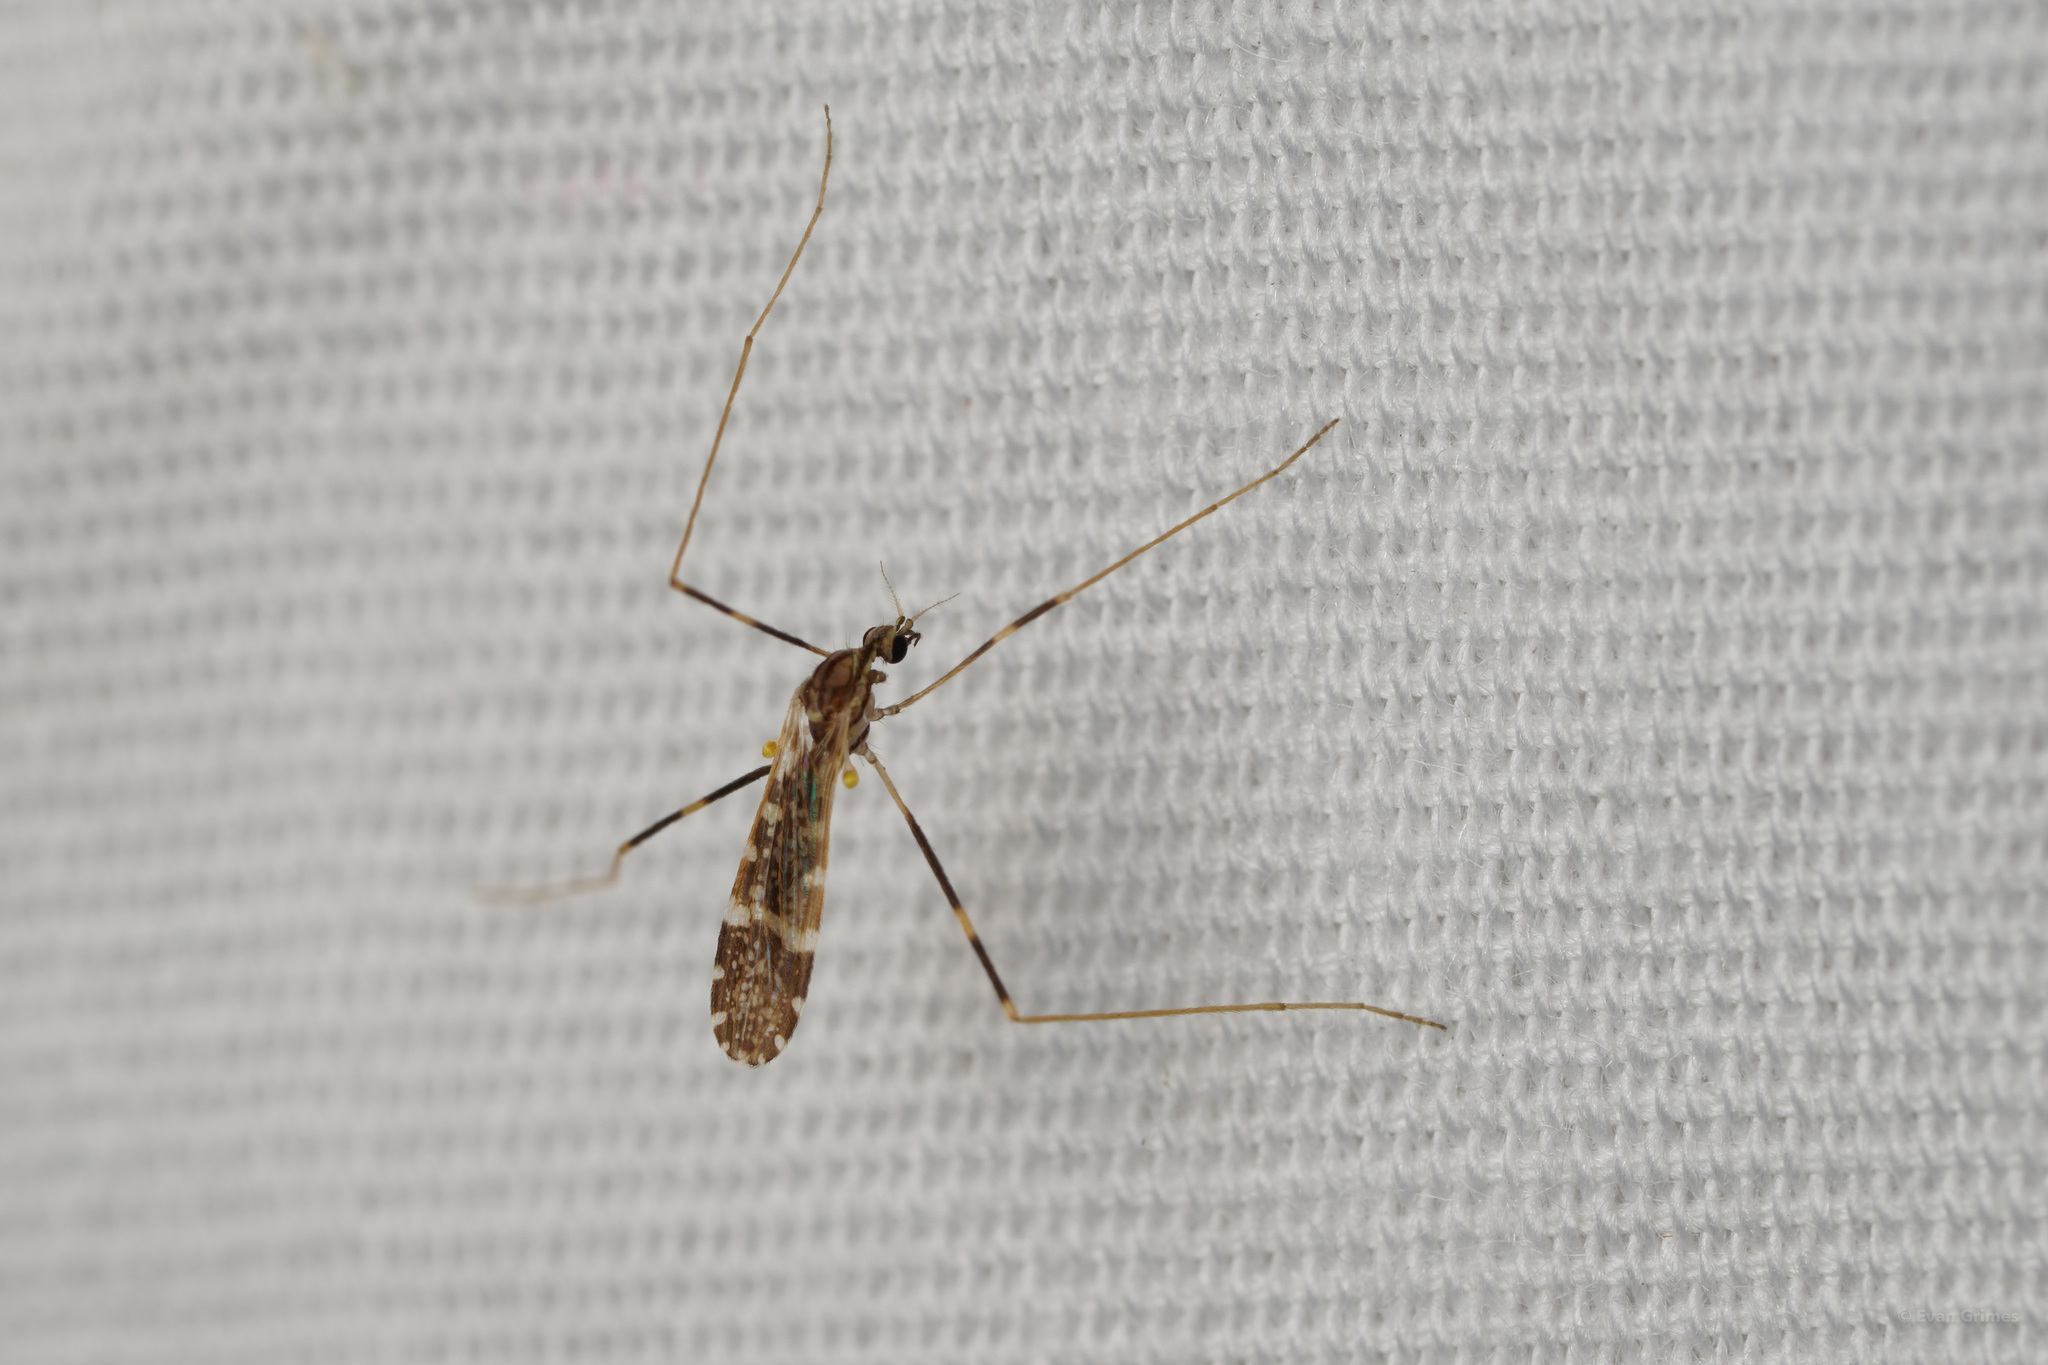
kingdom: Animalia
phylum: Arthropoda
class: Insecta
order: Diptera
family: Limoniidae
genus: Erioptera
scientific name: Erioptera caliptera
